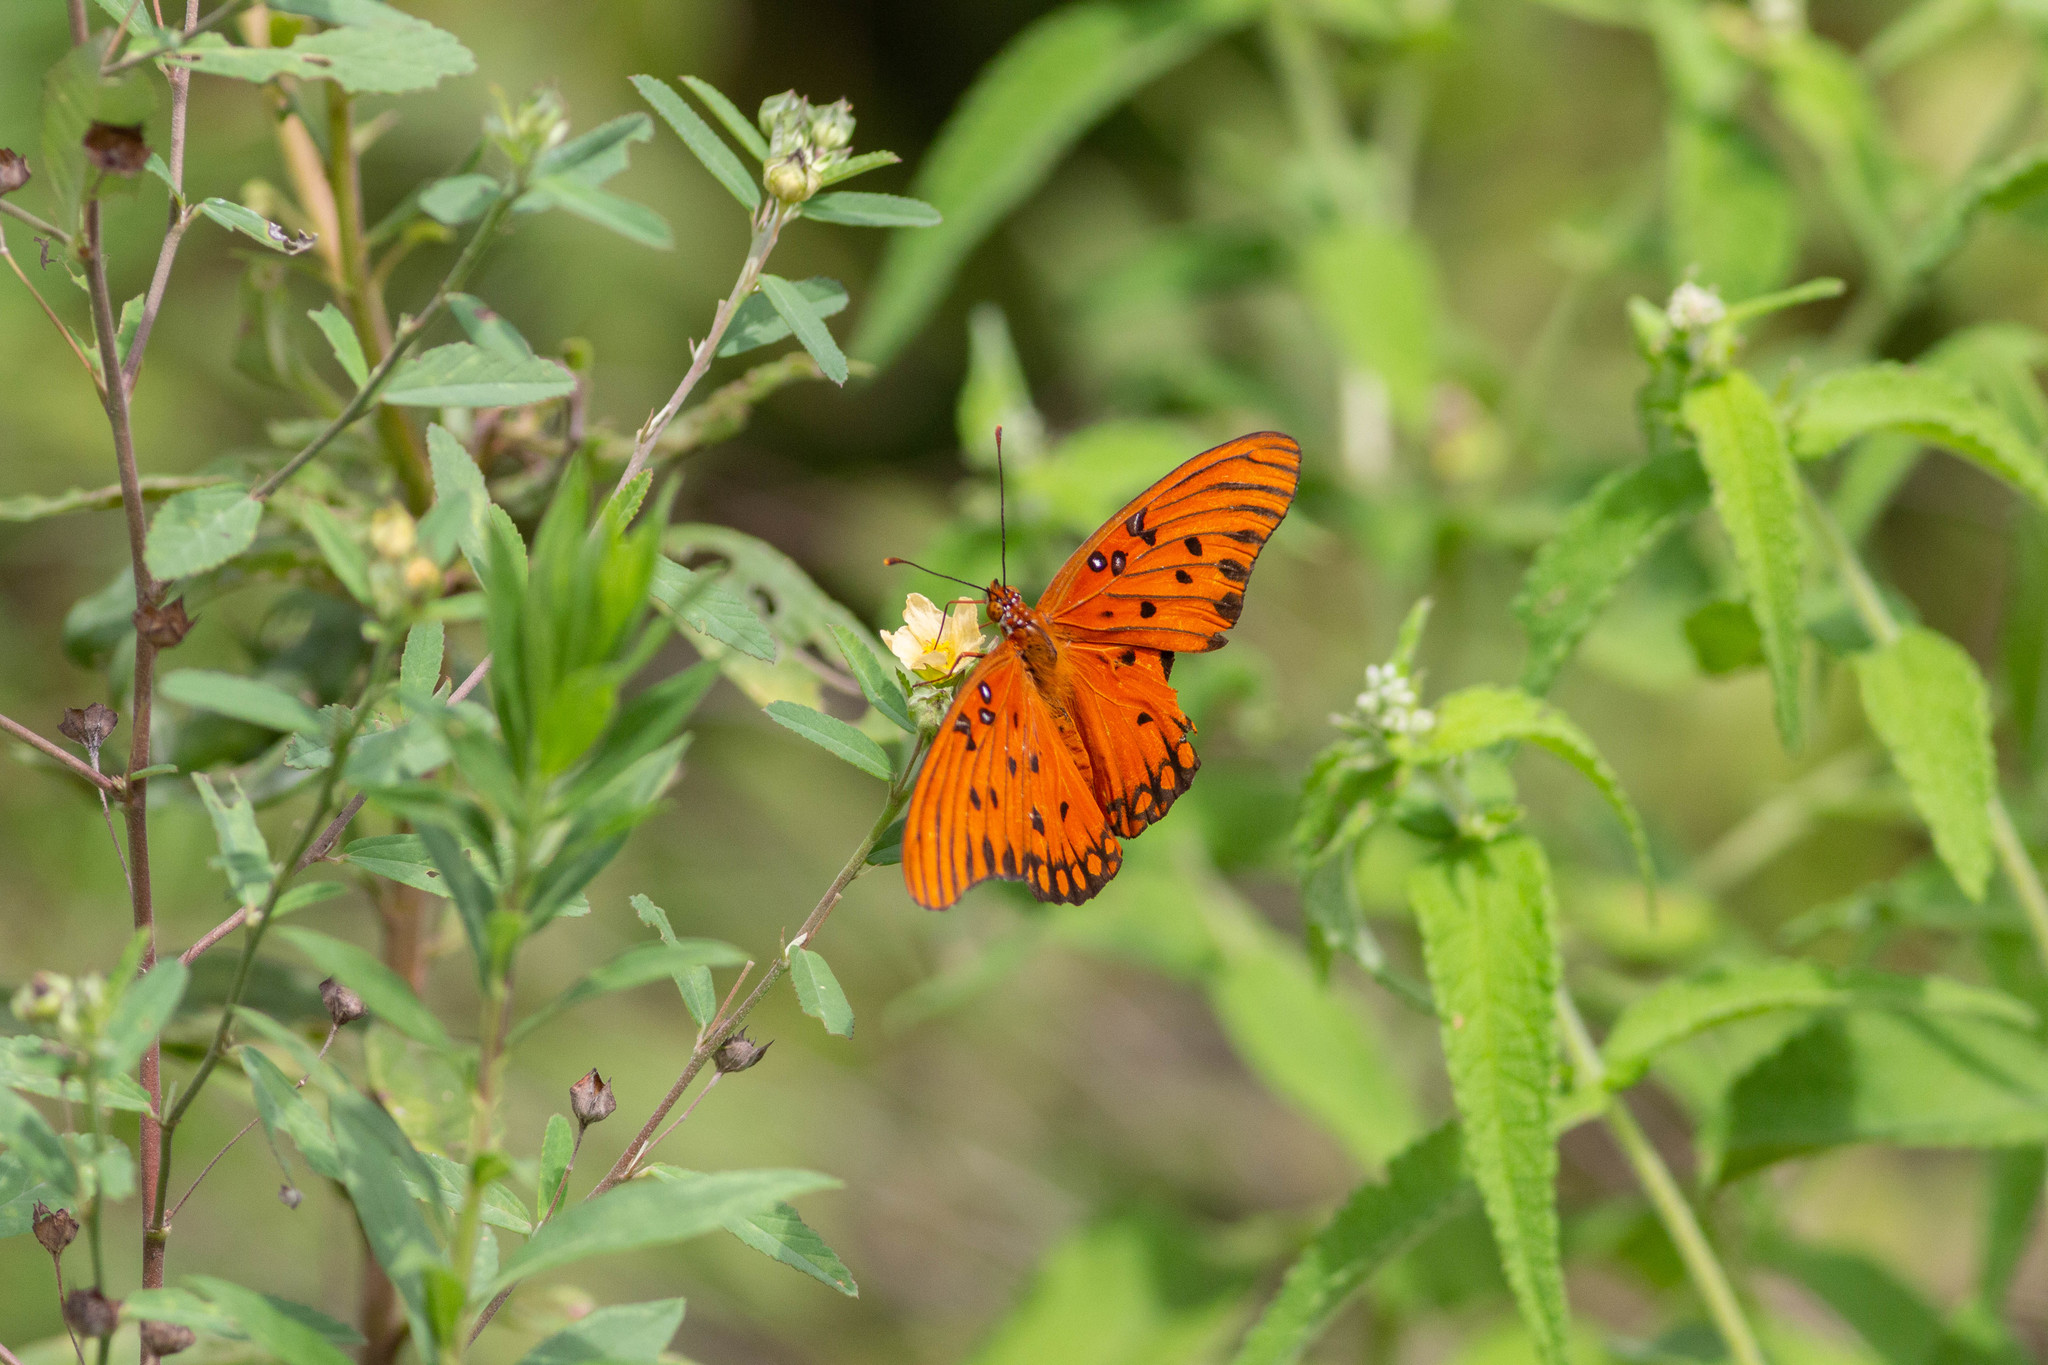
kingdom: Animalia
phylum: Arthropoda
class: Insecta
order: Lepidoptera
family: Nymphalidae
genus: Dione
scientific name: Dione vanillae
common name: Gulf fritillary
